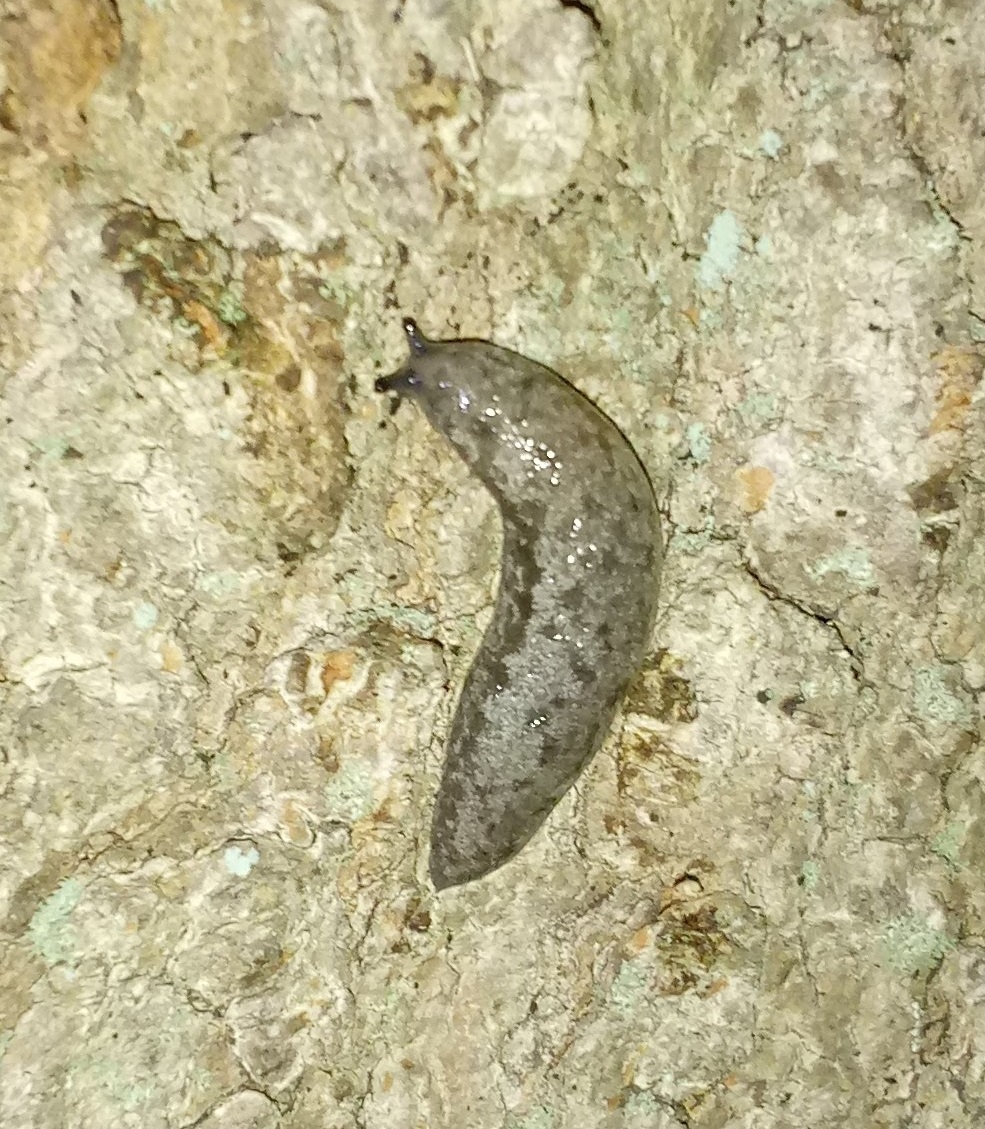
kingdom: Animalia
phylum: Mollusca
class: Gastropoda
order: Stylommatophora
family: Philomycidae
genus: Megapallifera
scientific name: Megapallifera mutabilis
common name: Changeable mantleslug
